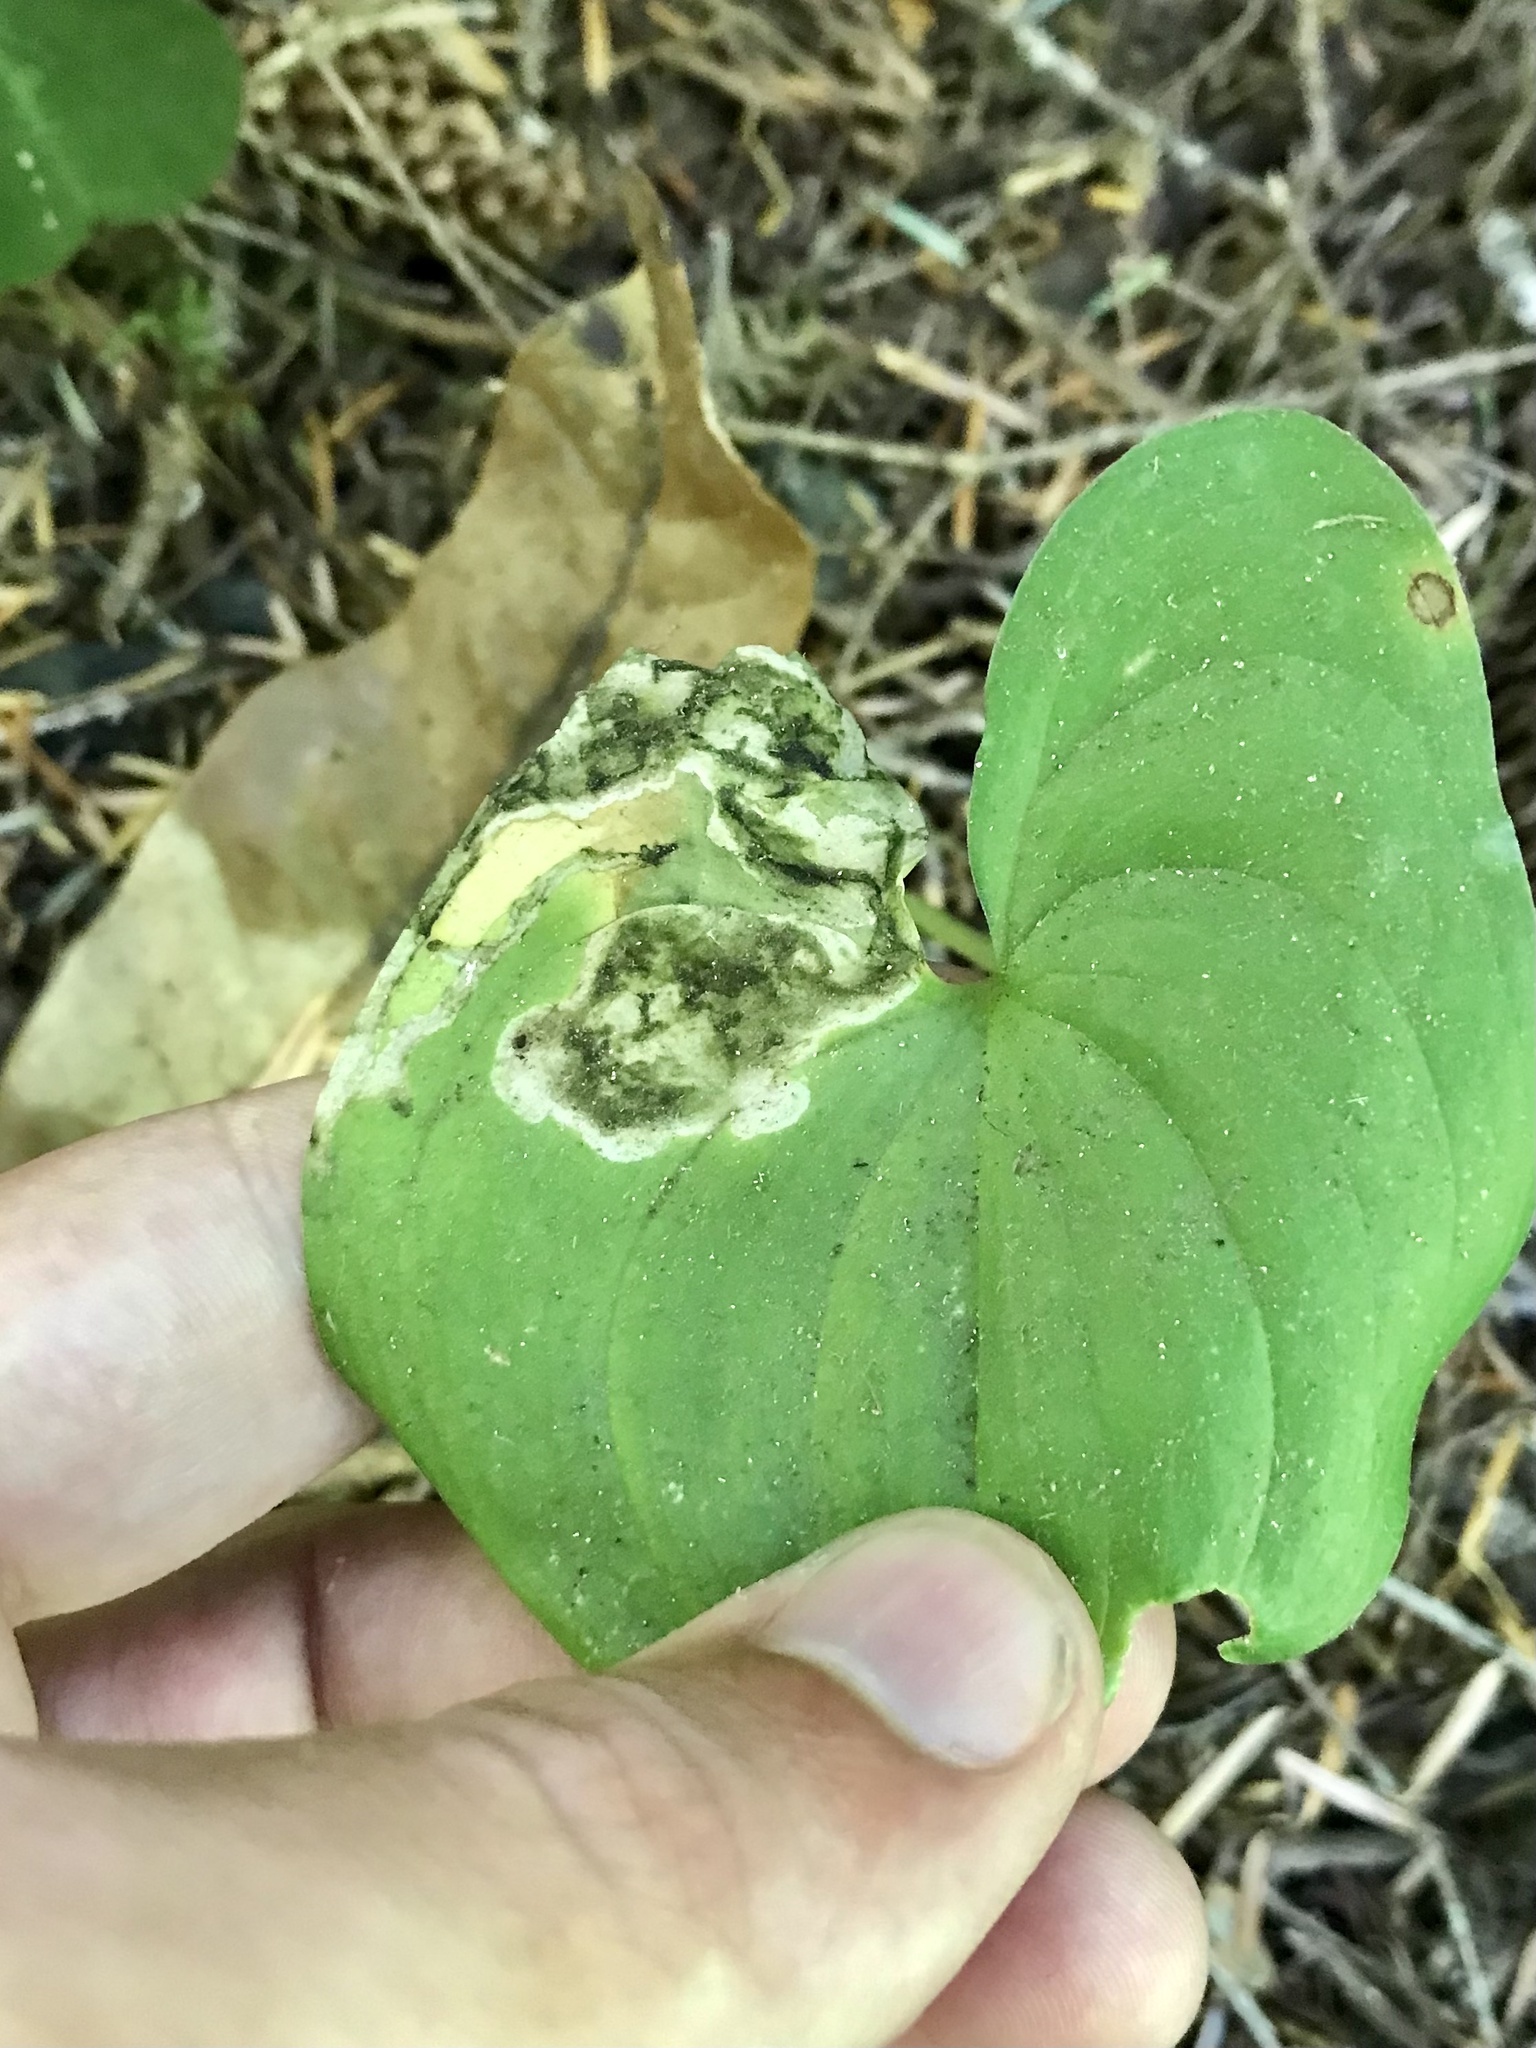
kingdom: Animalia
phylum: Arthropoda
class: Insecta
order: Diptera
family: Scathophagidae
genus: Leptopa
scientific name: Leptopa
